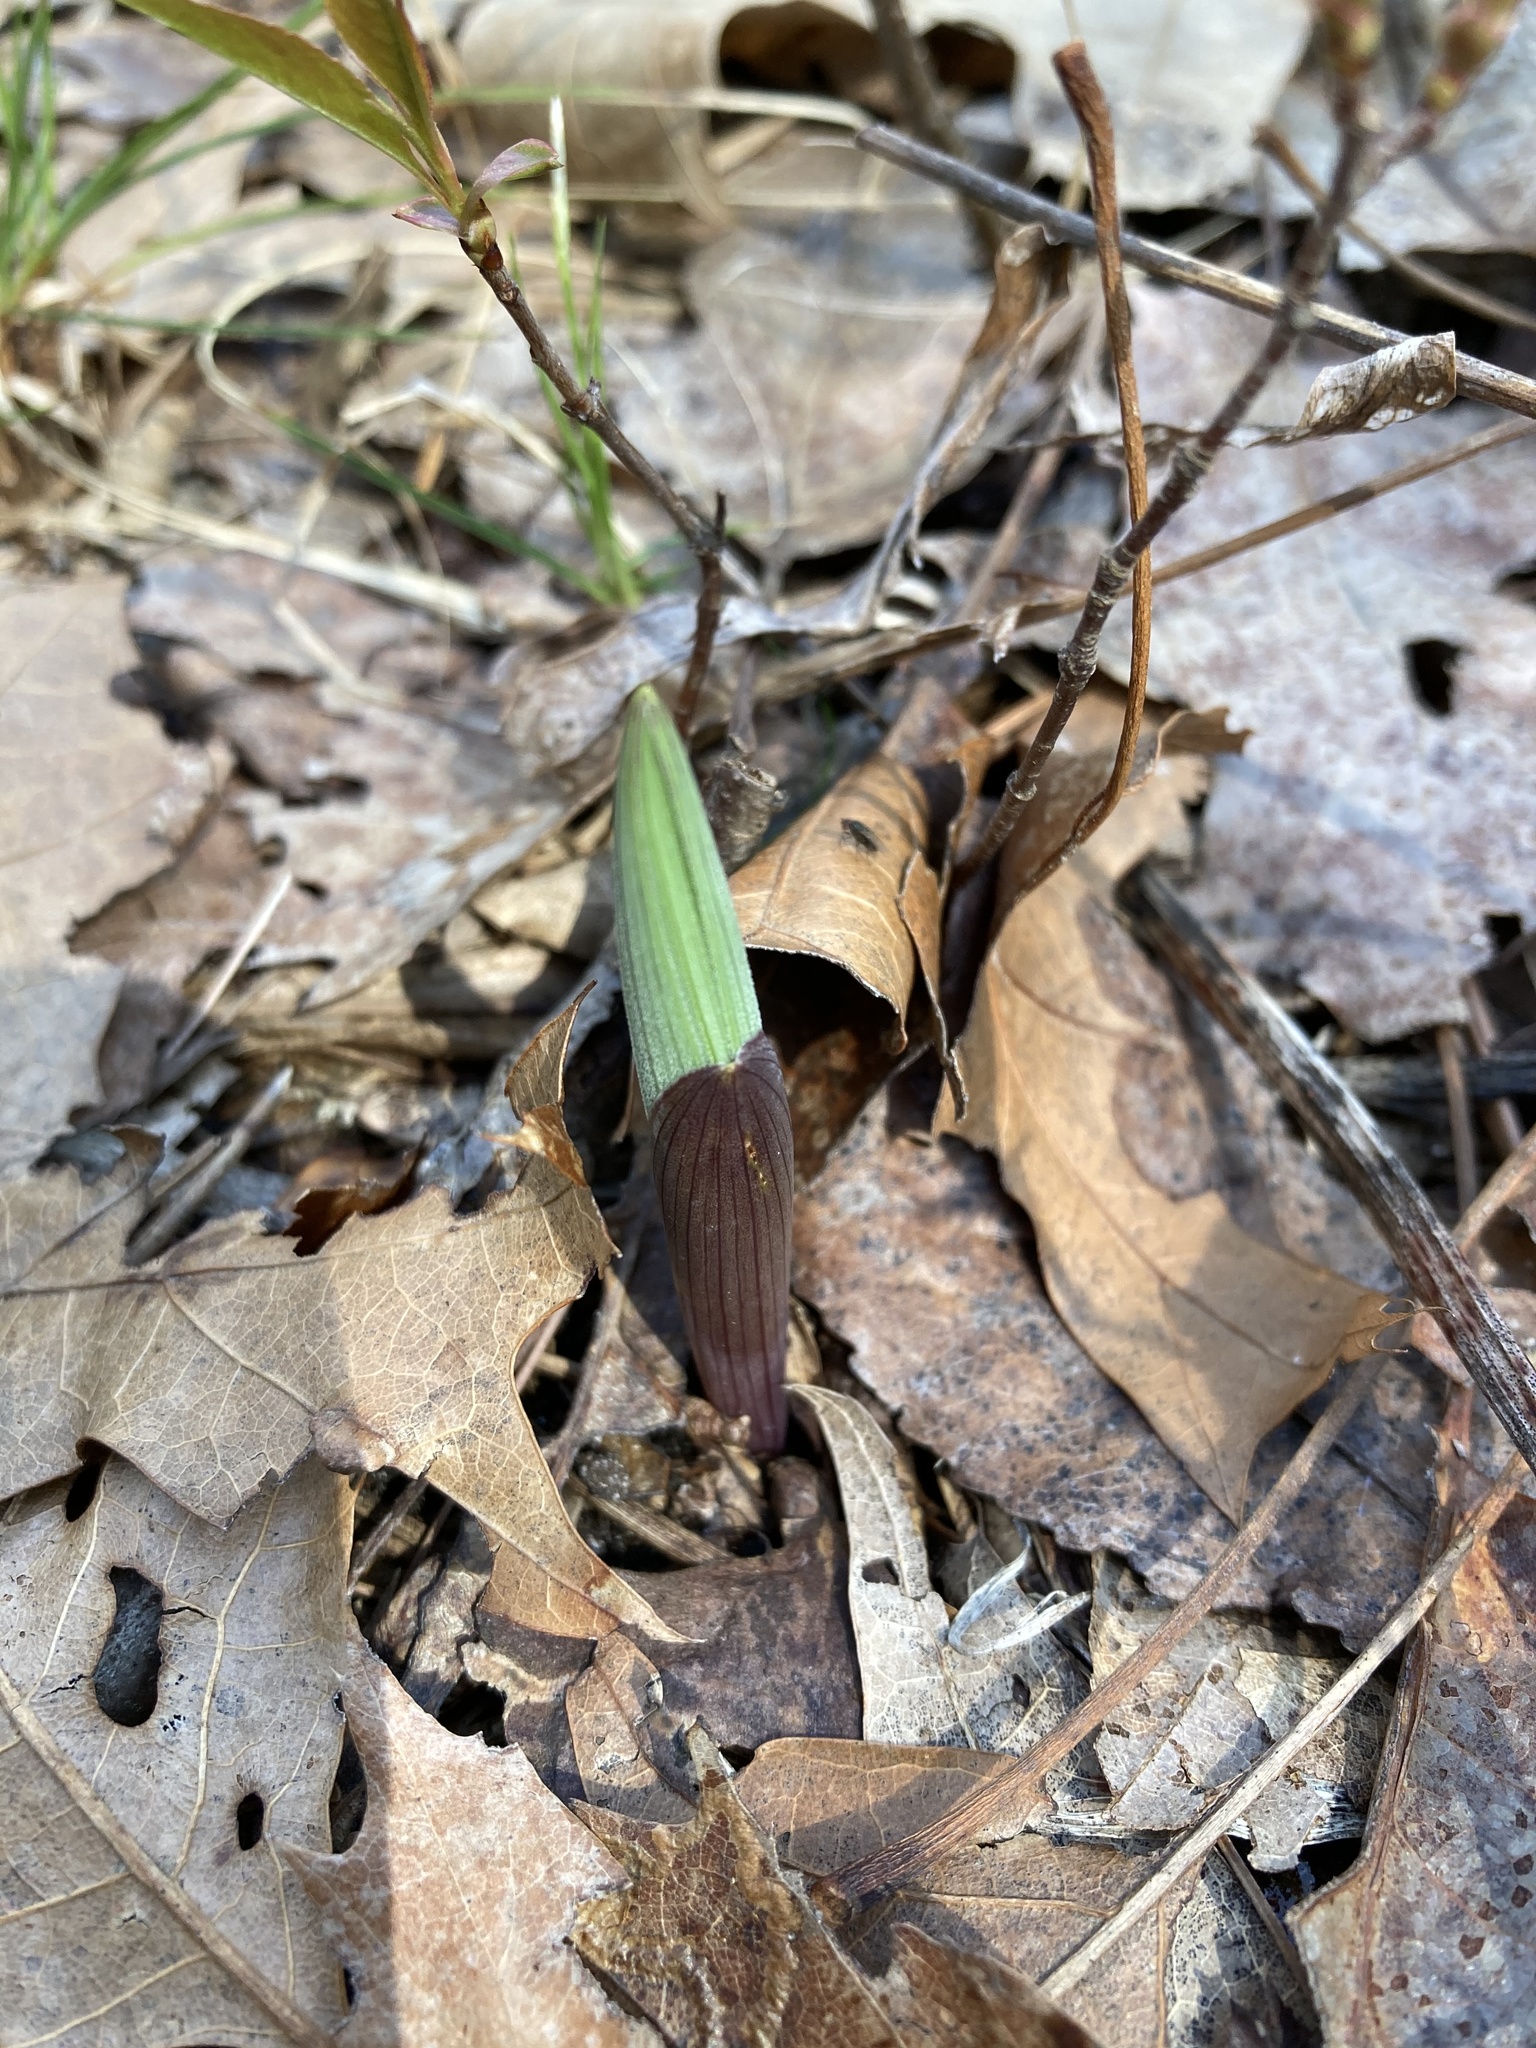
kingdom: Plantae
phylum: Tracheophyta
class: Liliopsida
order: Asparagales
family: Asparagaceae
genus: Maianthemum
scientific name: Maianthemum racemosum
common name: False spikenard
